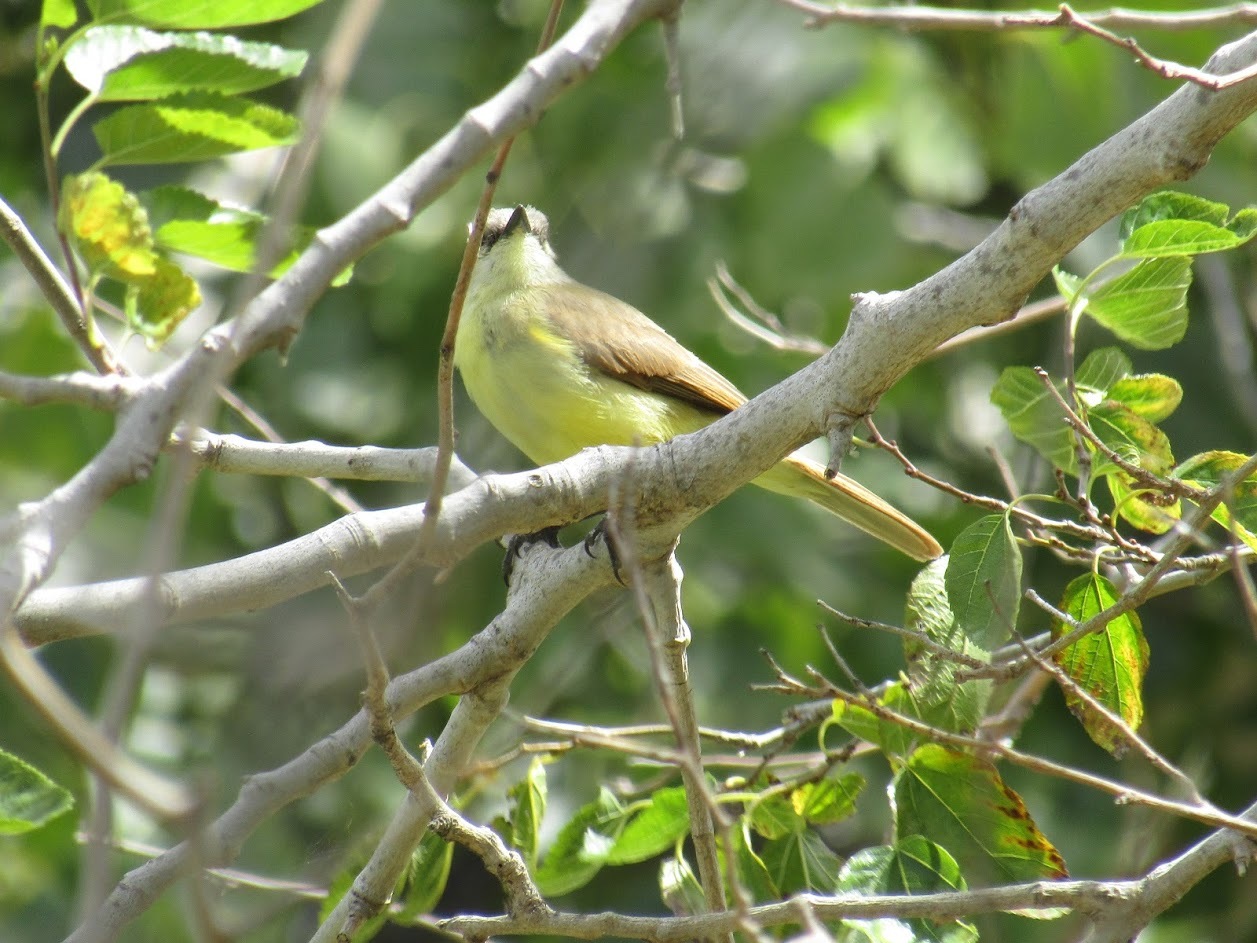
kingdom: Animalia
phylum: Chordata
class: Aves
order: Passeriformes
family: Tyrannidae
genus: Machetornis
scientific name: Machetornis rixosa
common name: Cattle tyrant
